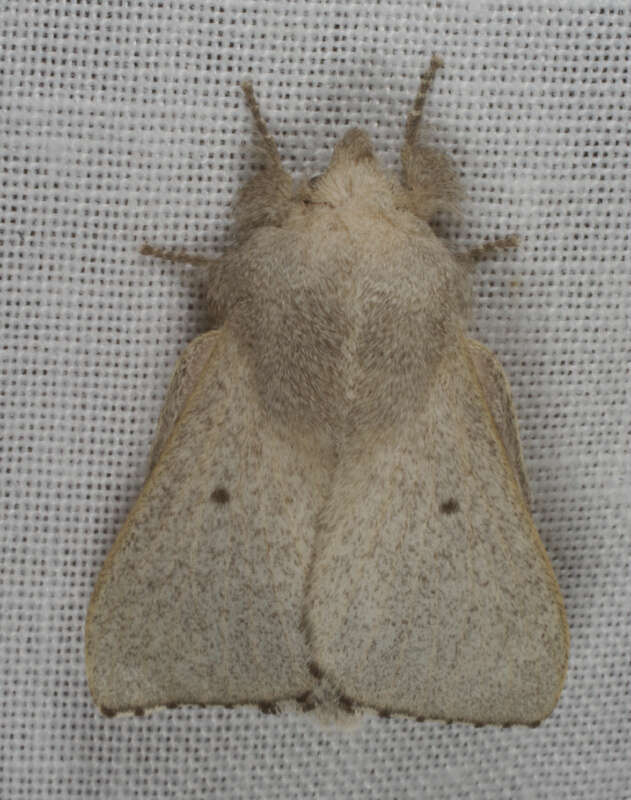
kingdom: Animalia
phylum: Arthropoda
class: Insecta
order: Lepidoptera
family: Lasiocampidae
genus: Symphyta
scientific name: Symphyta psaropis
